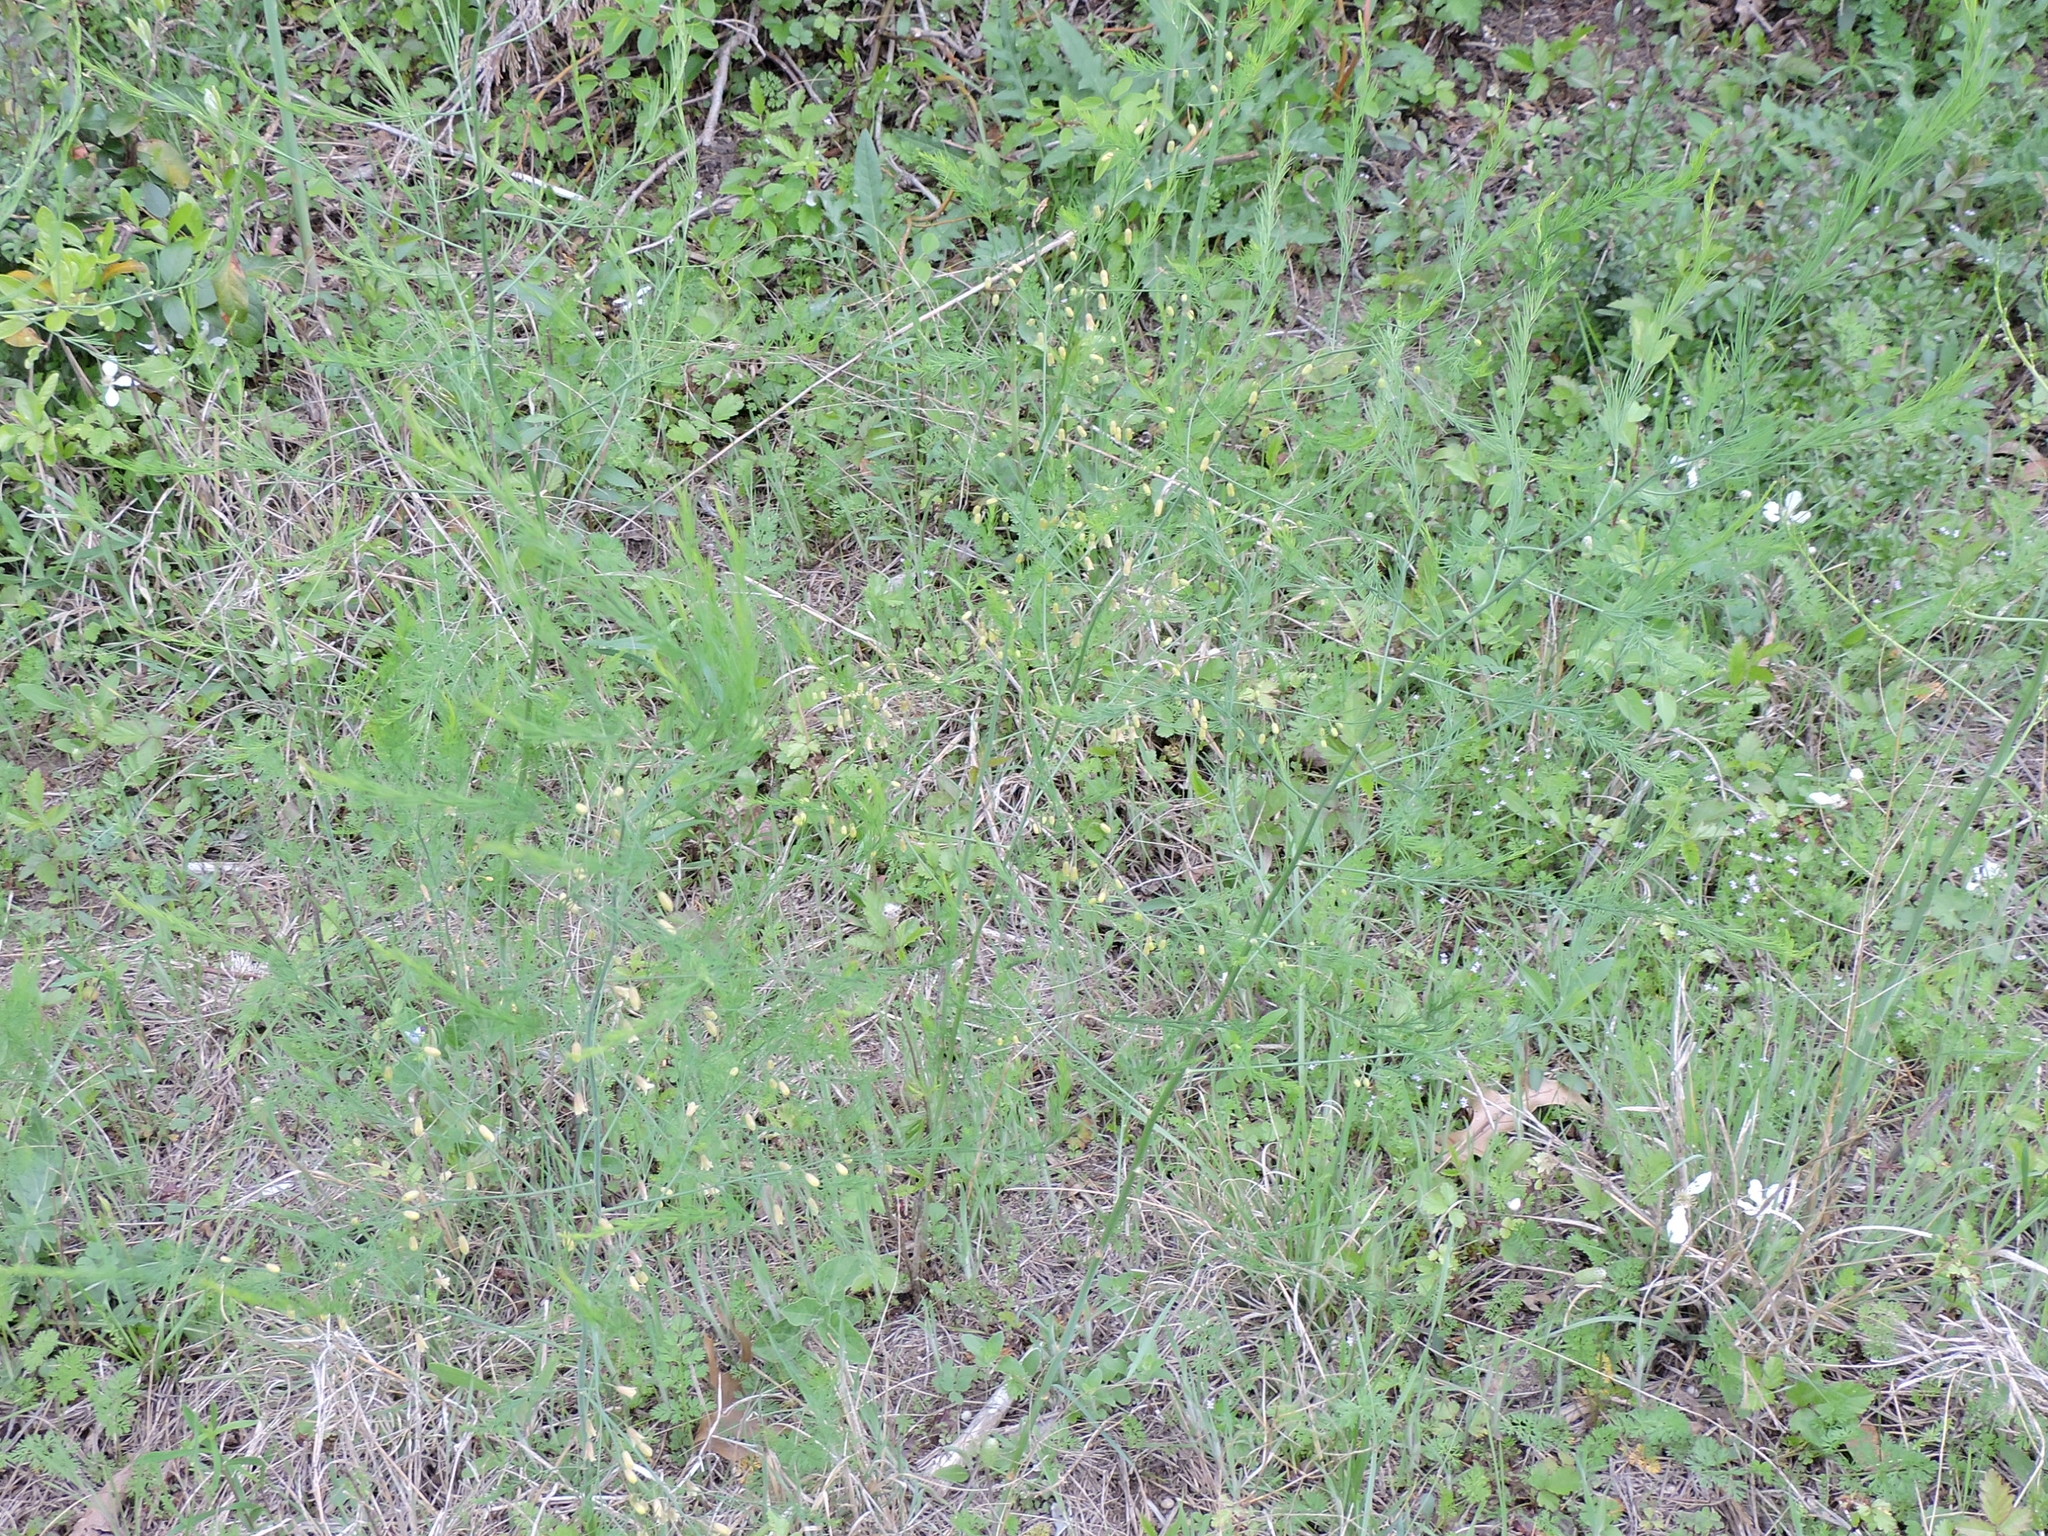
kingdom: Plantae
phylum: Tracheophyta
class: Liliopsida
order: Asparagales
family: Asparagaceae
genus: Asparagus
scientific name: Asparagus officinalis
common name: Garden asparagus
